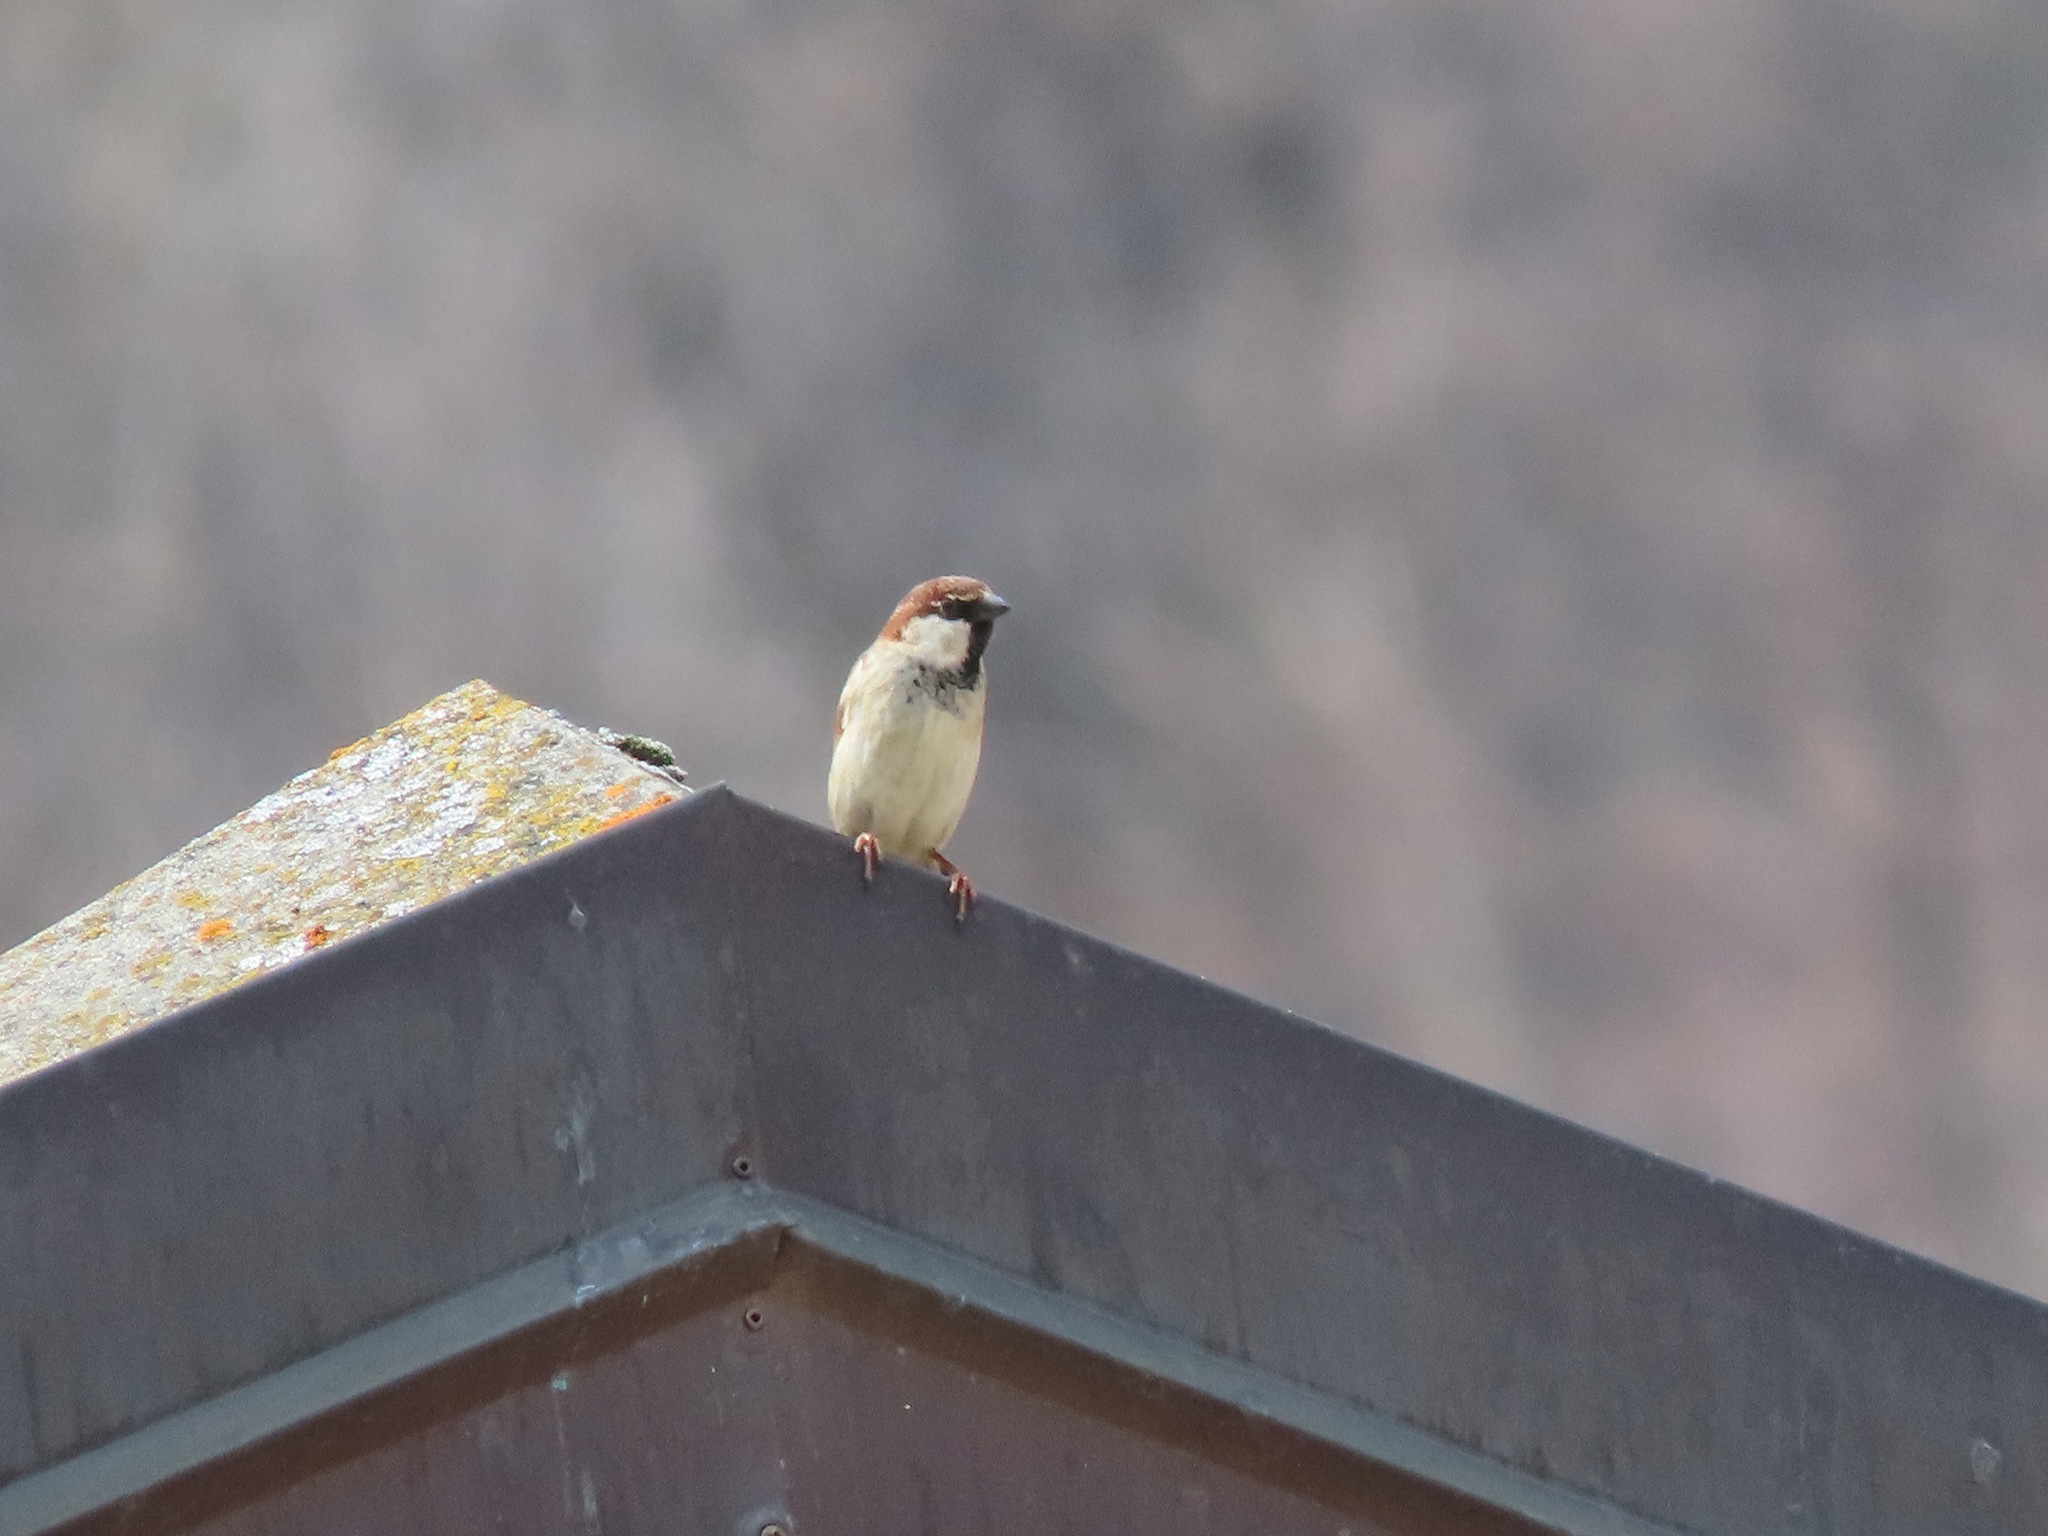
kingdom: Animalia
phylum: Chordata
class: Aves
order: Passeriformes
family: Passeridae
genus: Passer
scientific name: Passer italiae
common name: Italian sparrow
